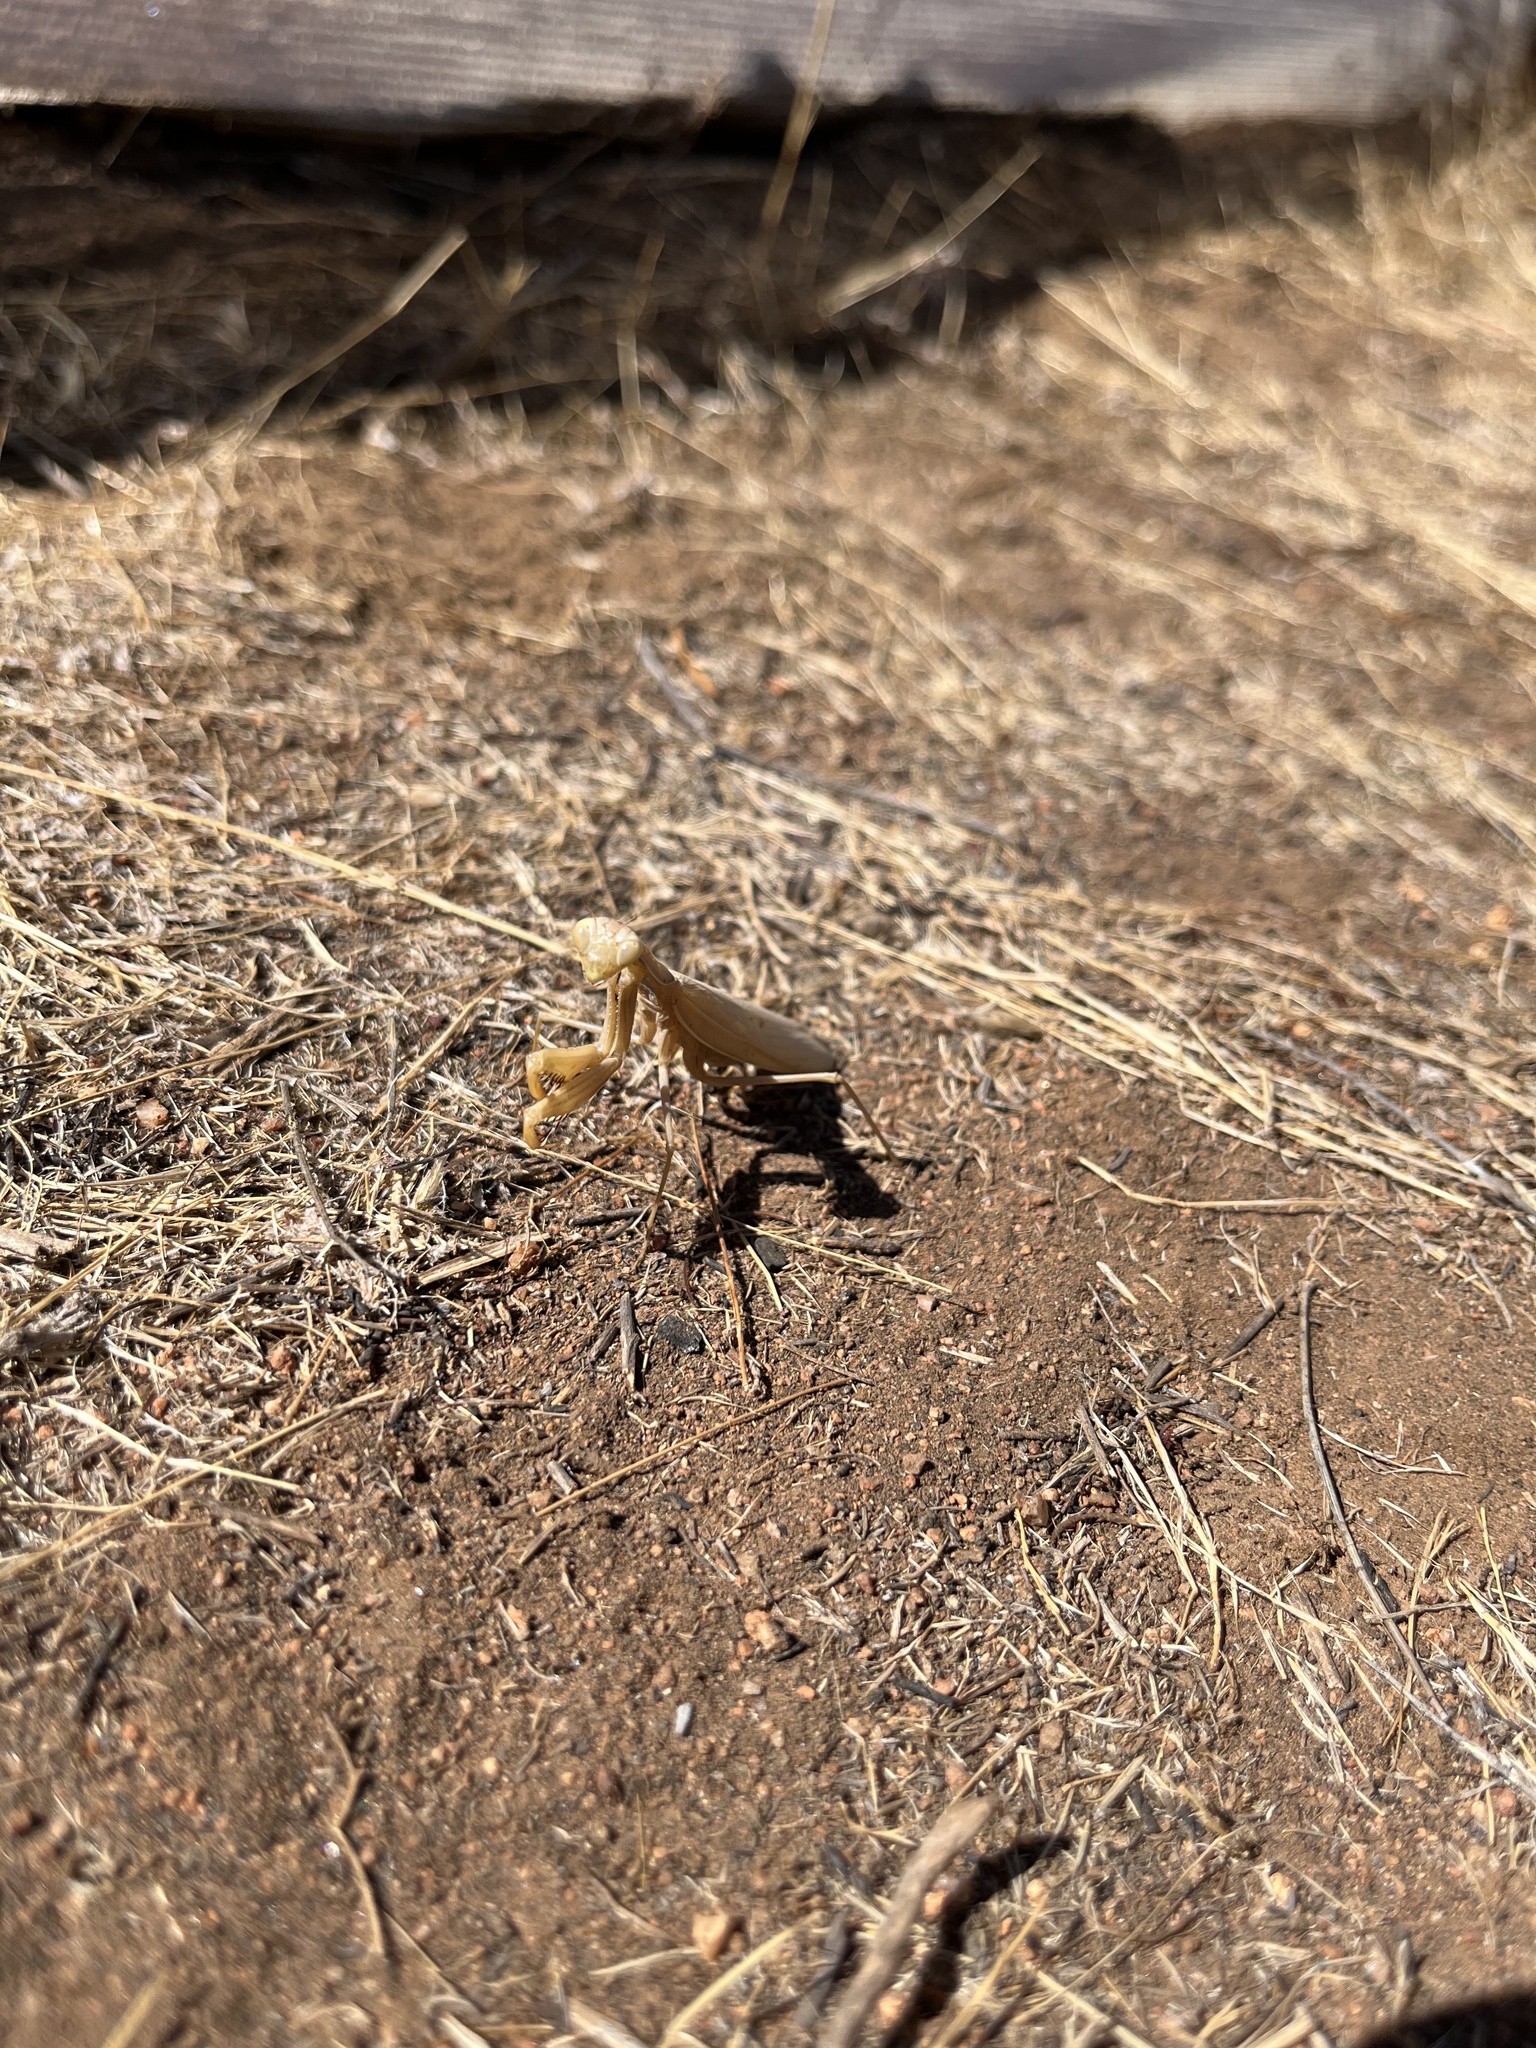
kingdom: Animalia
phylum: Arthropoda
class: Insecta
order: Mantodea
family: Mantidae
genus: Mantis
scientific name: Mantis religiosa
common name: Praying mantis
